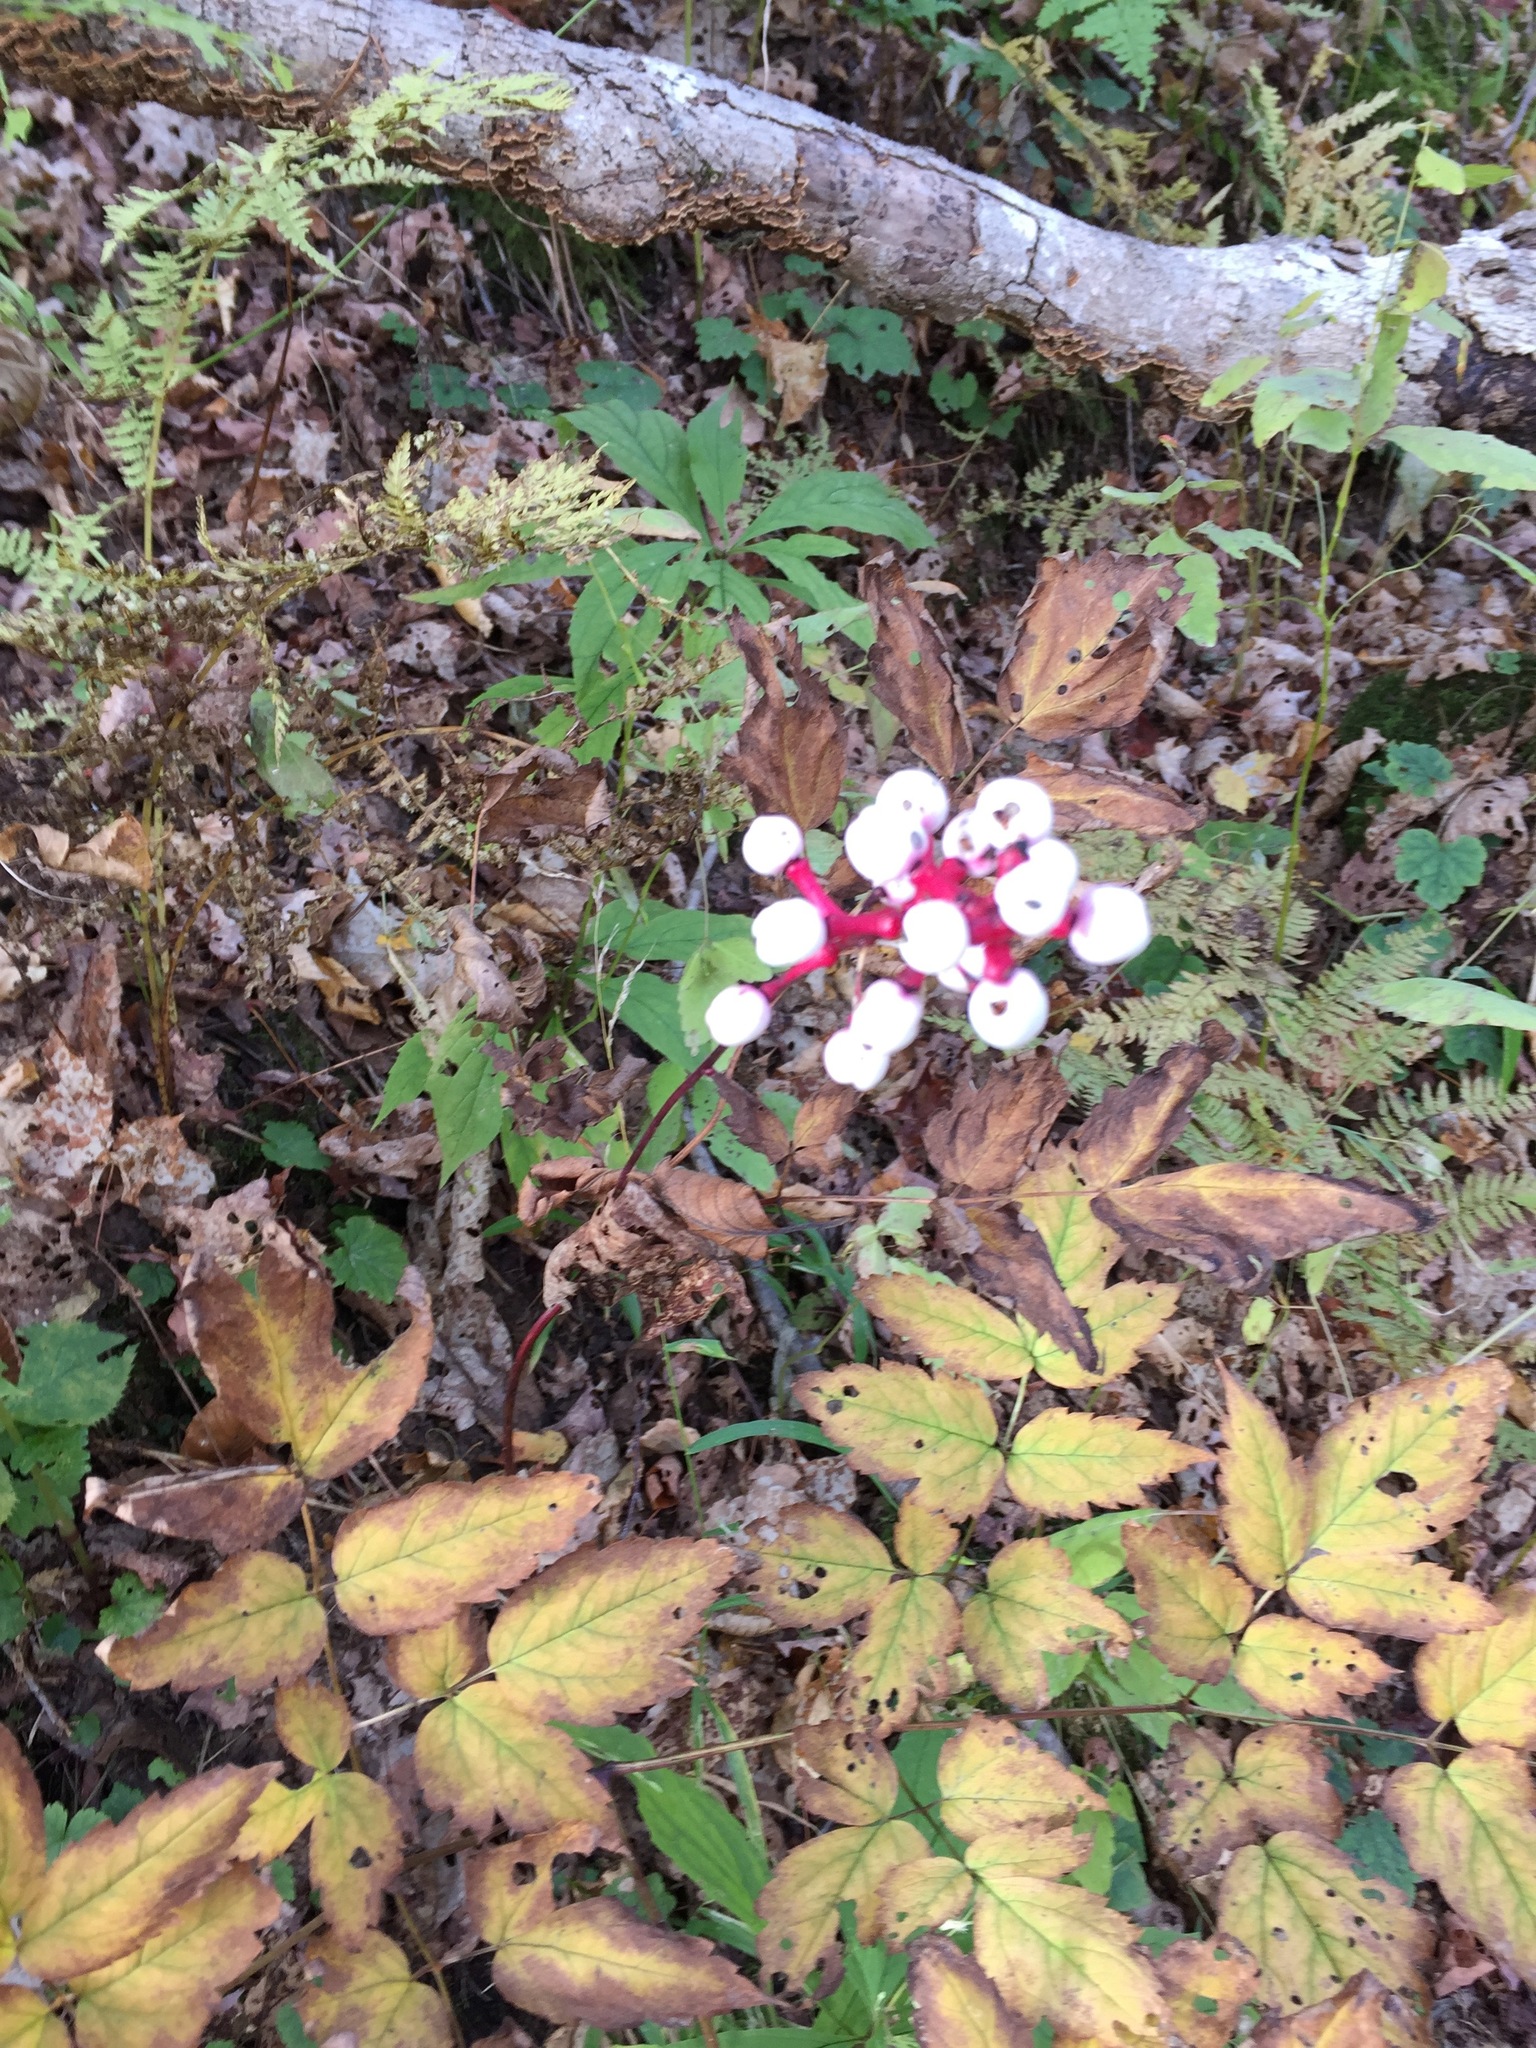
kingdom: Plantae
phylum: Tracheophyta
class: Magnoliopsida
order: Ranunculales
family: Ranunculaceae
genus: Actaea
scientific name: Actaea pachypoda
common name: Doll's-eyes
